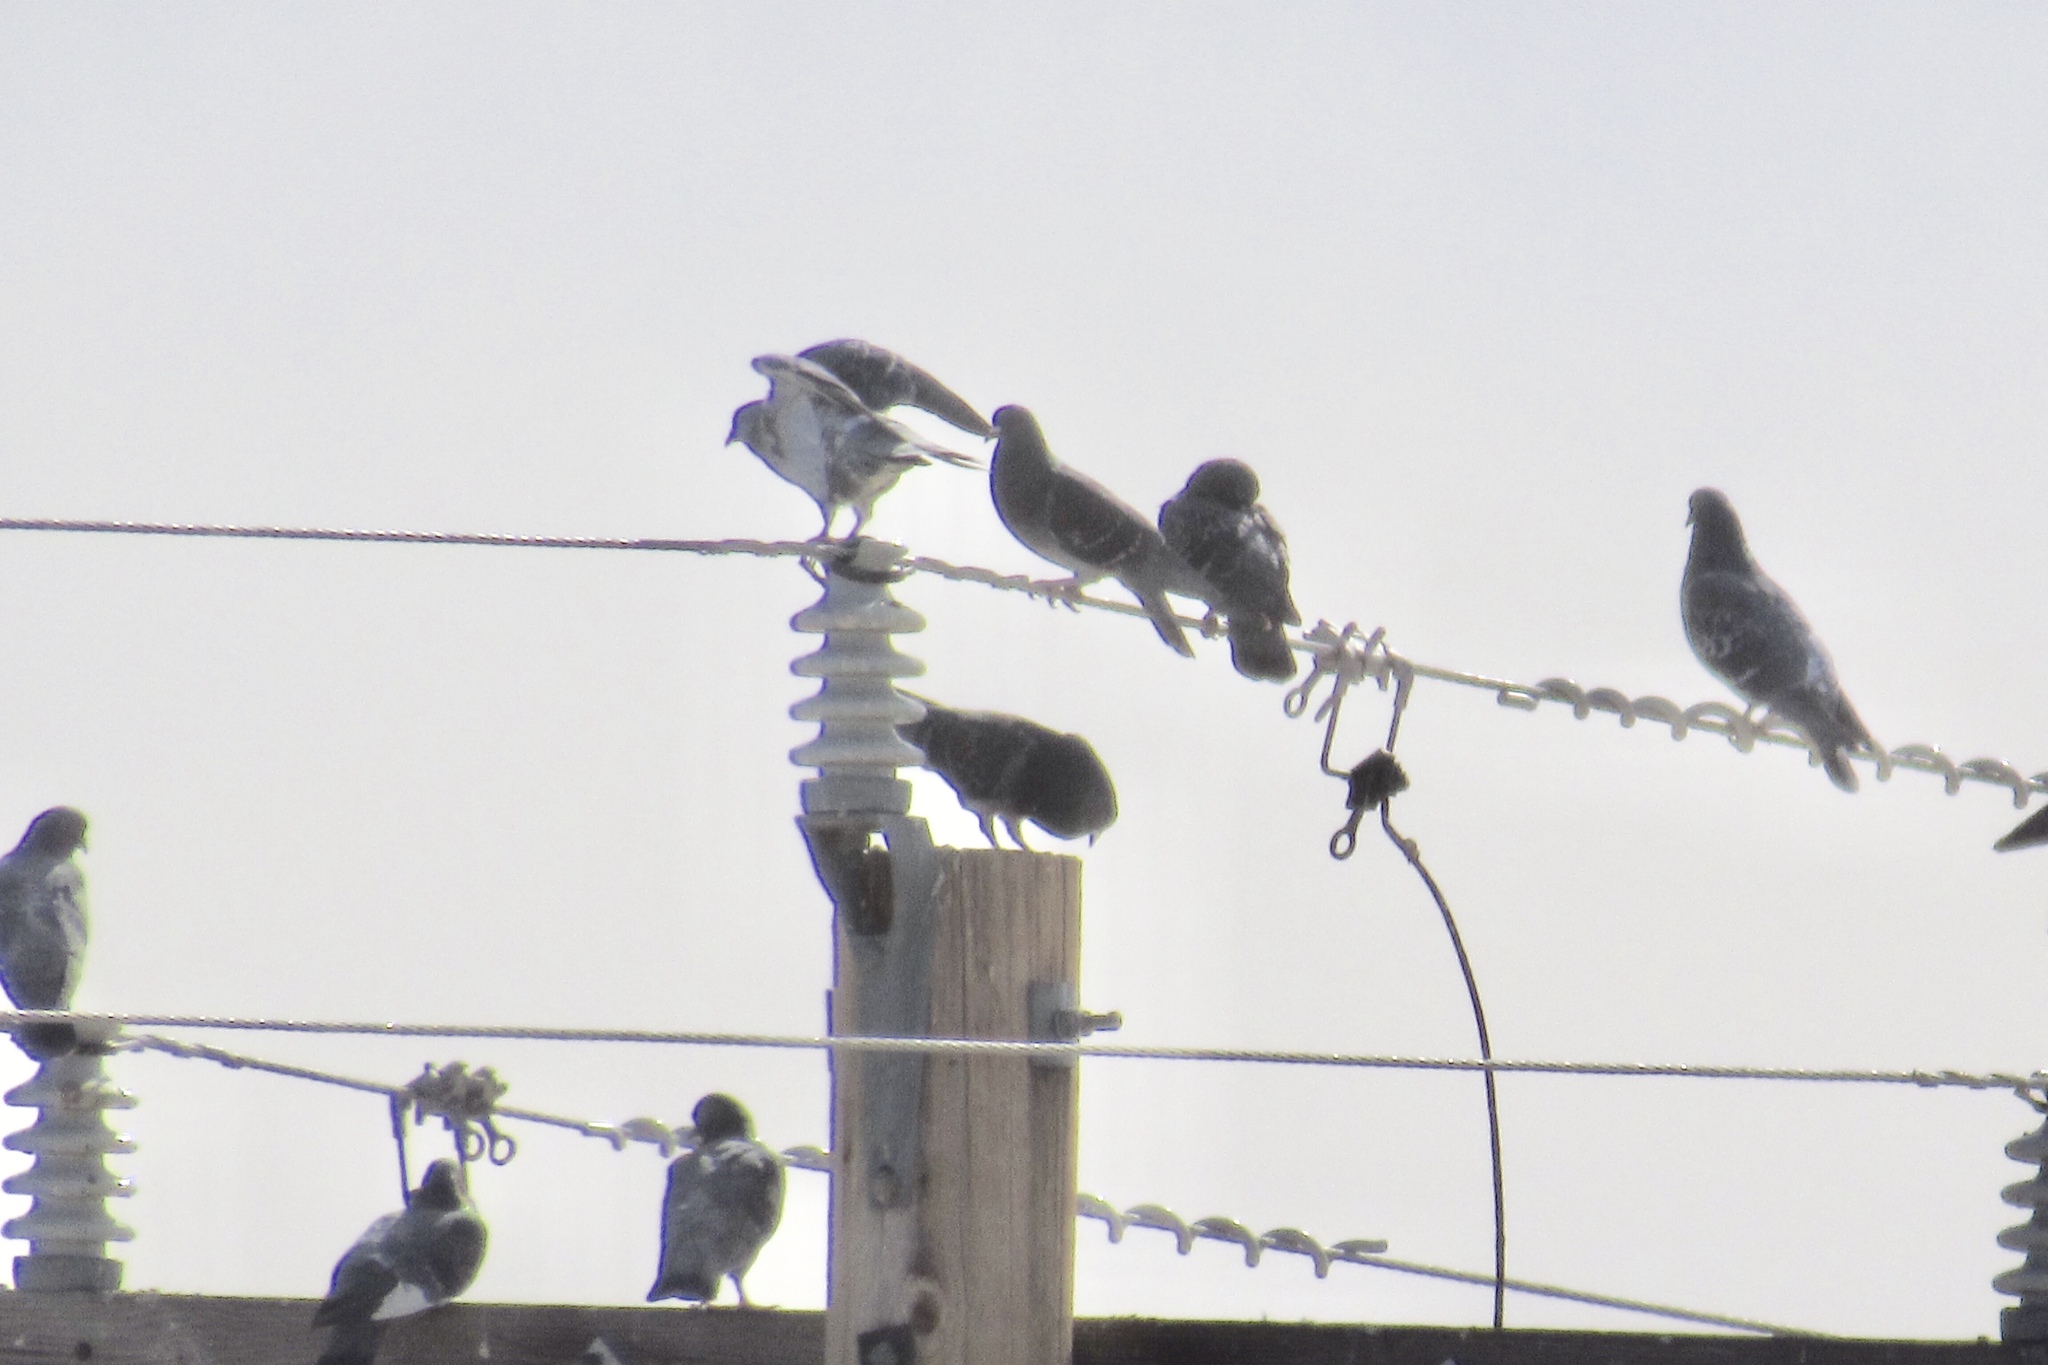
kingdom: Animalia
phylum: Chordata
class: Aves
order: Columbiformes
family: Columbidae
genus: Columba
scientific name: Columba livia
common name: Rock pigeon
